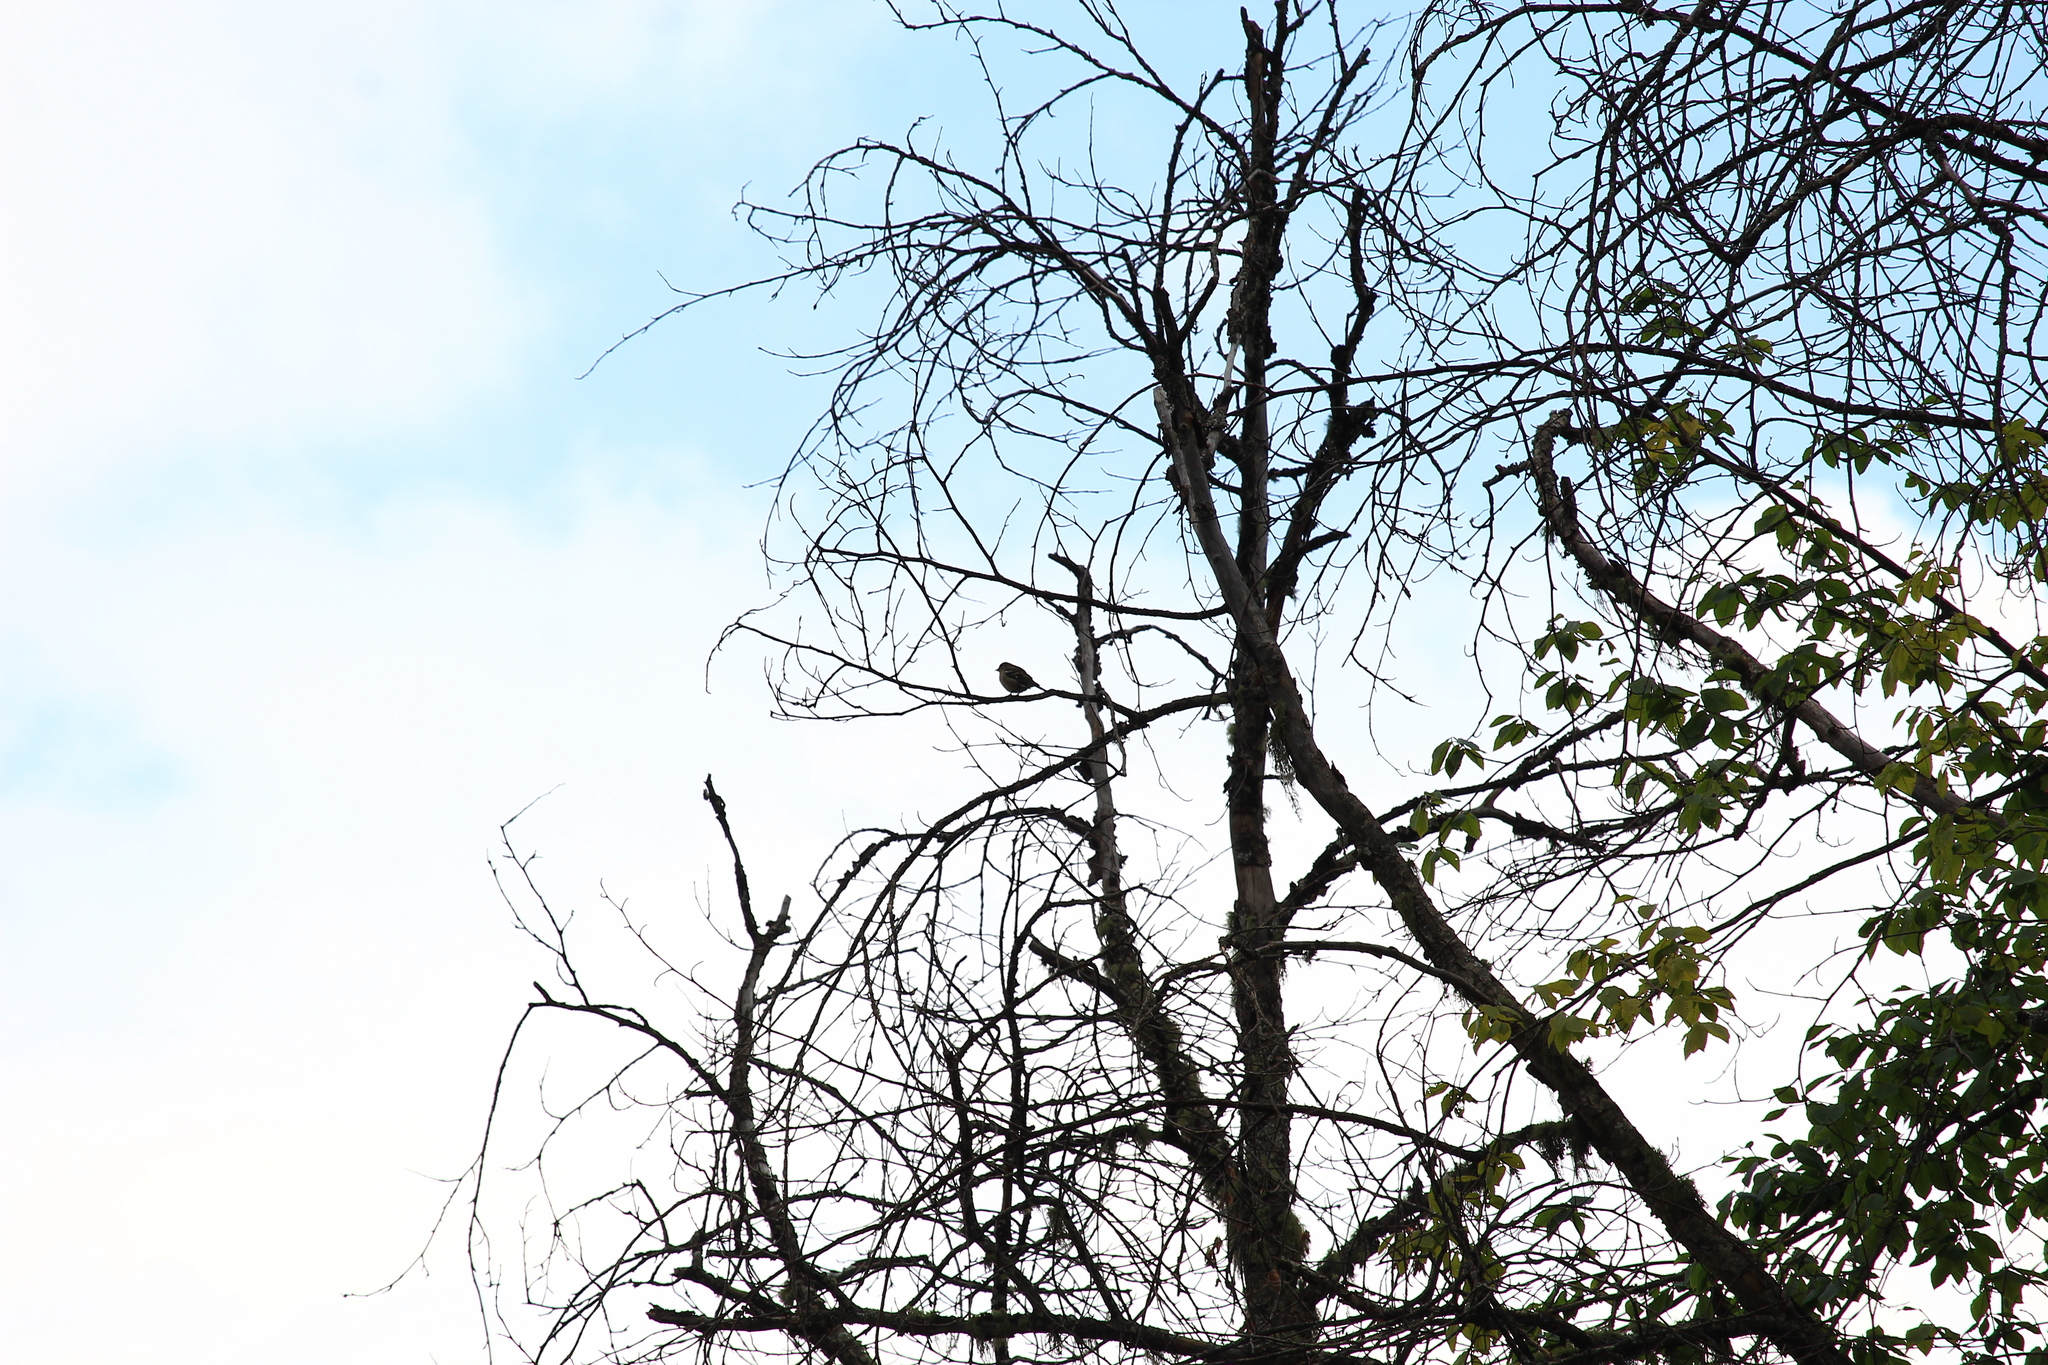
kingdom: Animalia
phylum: Chordata
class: Aves
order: Passeriformes
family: Fringillidae
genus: Fringilla
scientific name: Fringilla coelebs
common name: Common chaffinch
